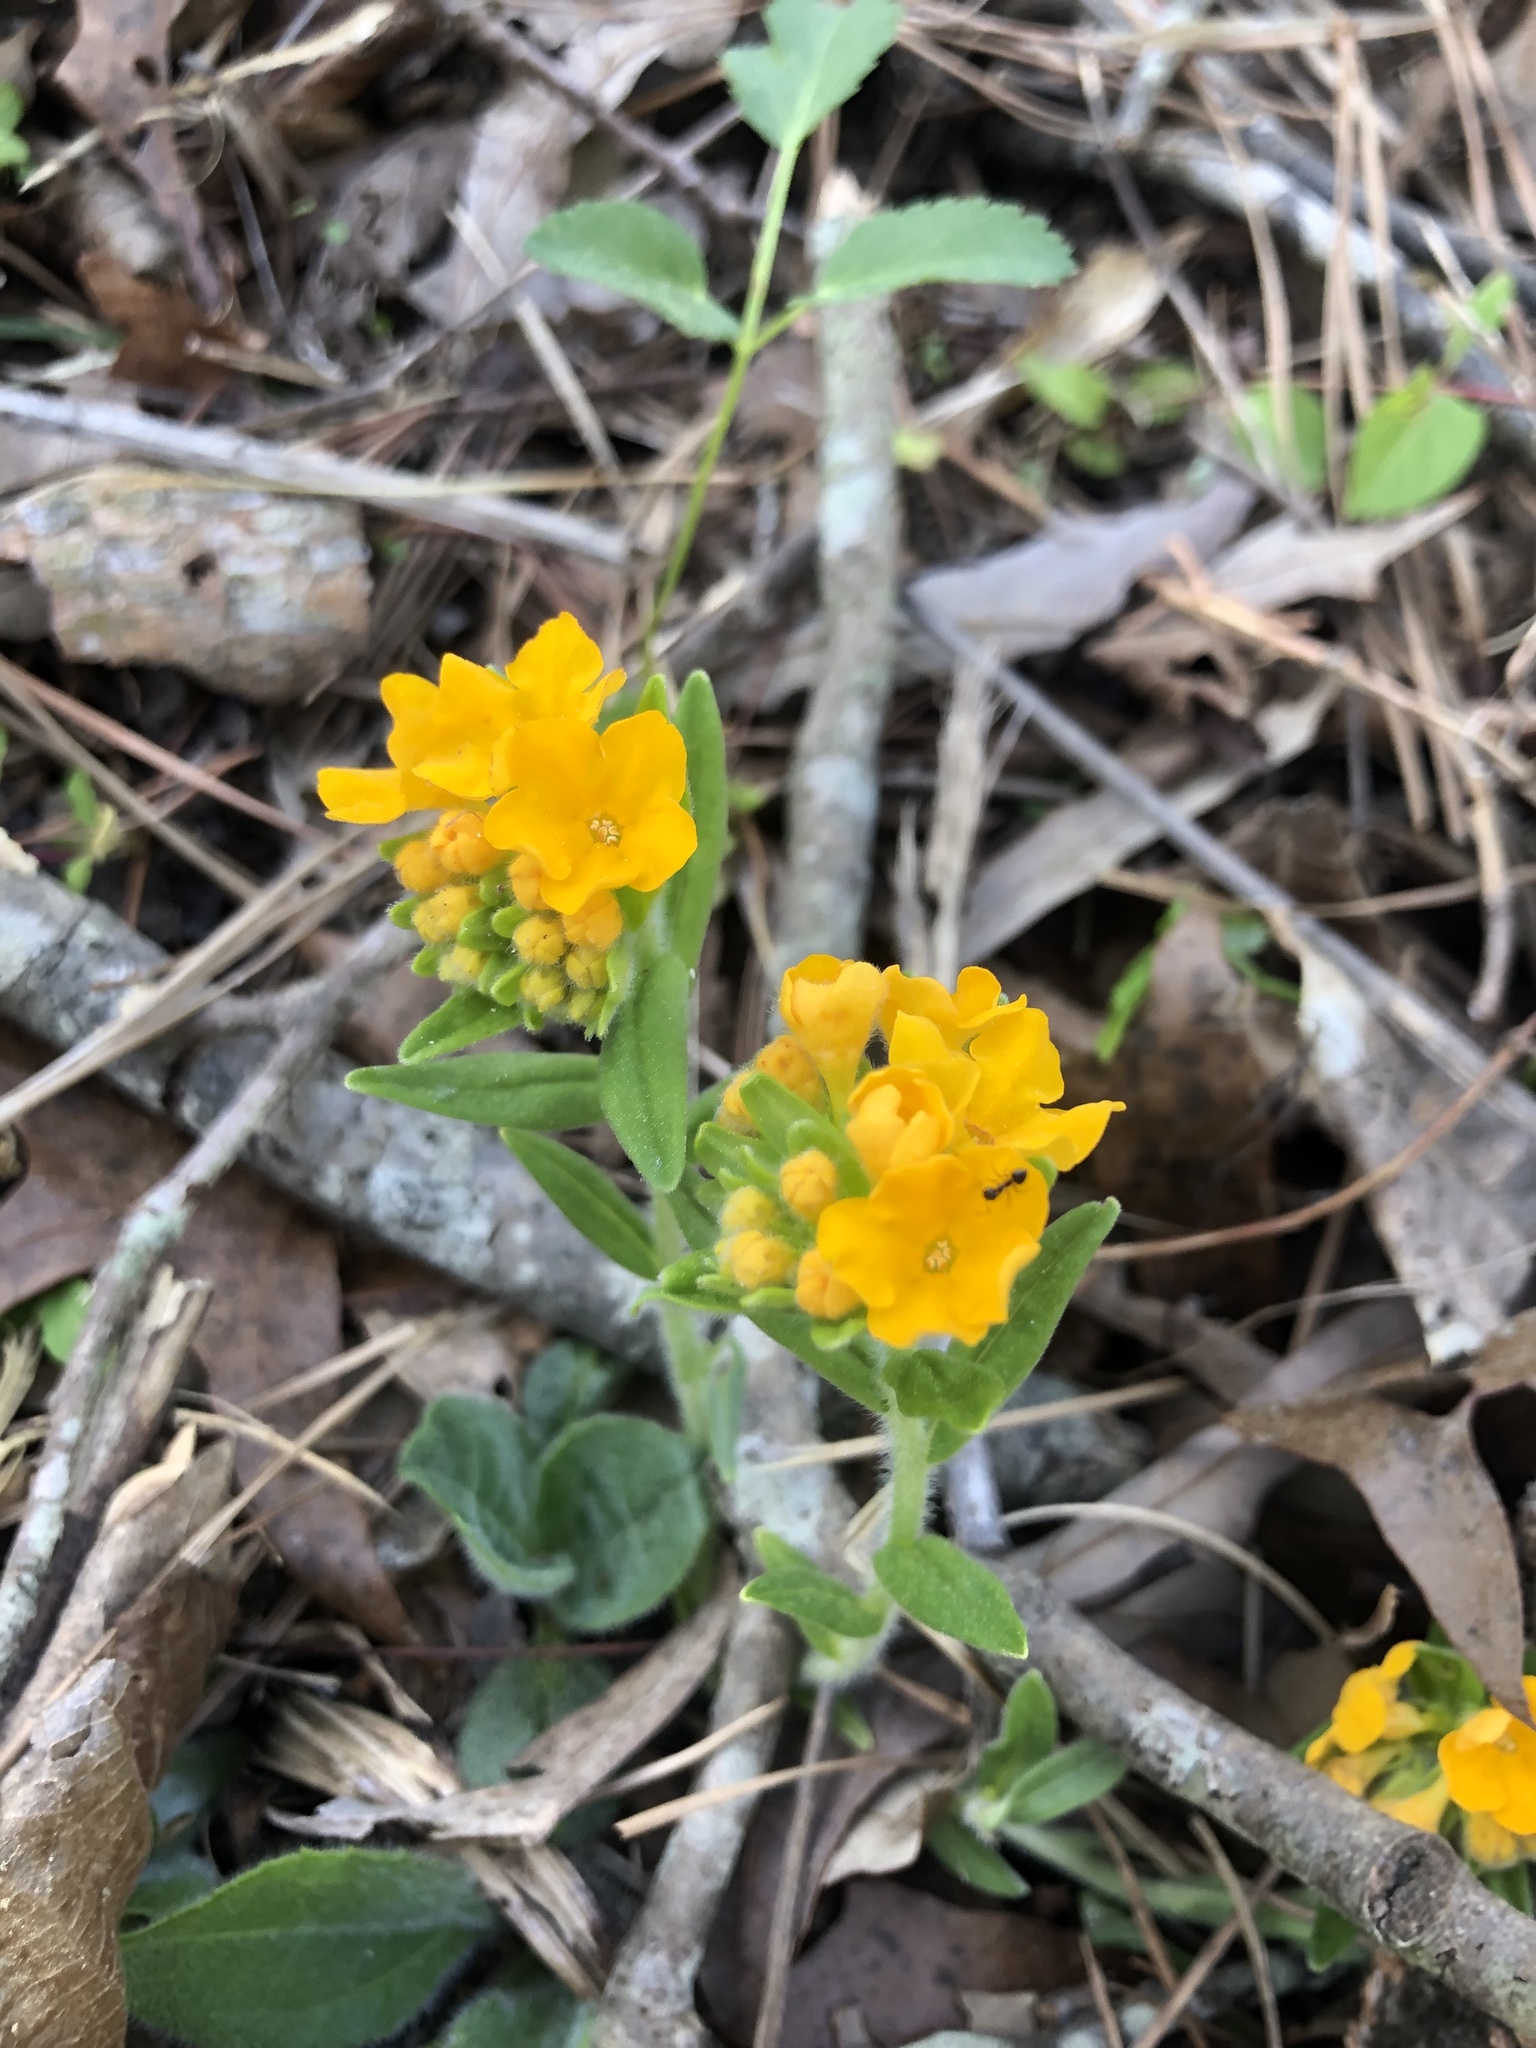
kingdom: Plantae
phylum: Tracheophyta
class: Magnoliopsida
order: Boraginales
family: Boraginaceae
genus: Lithospermum
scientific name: Lithospermum canescens
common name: Hoary puccoon
